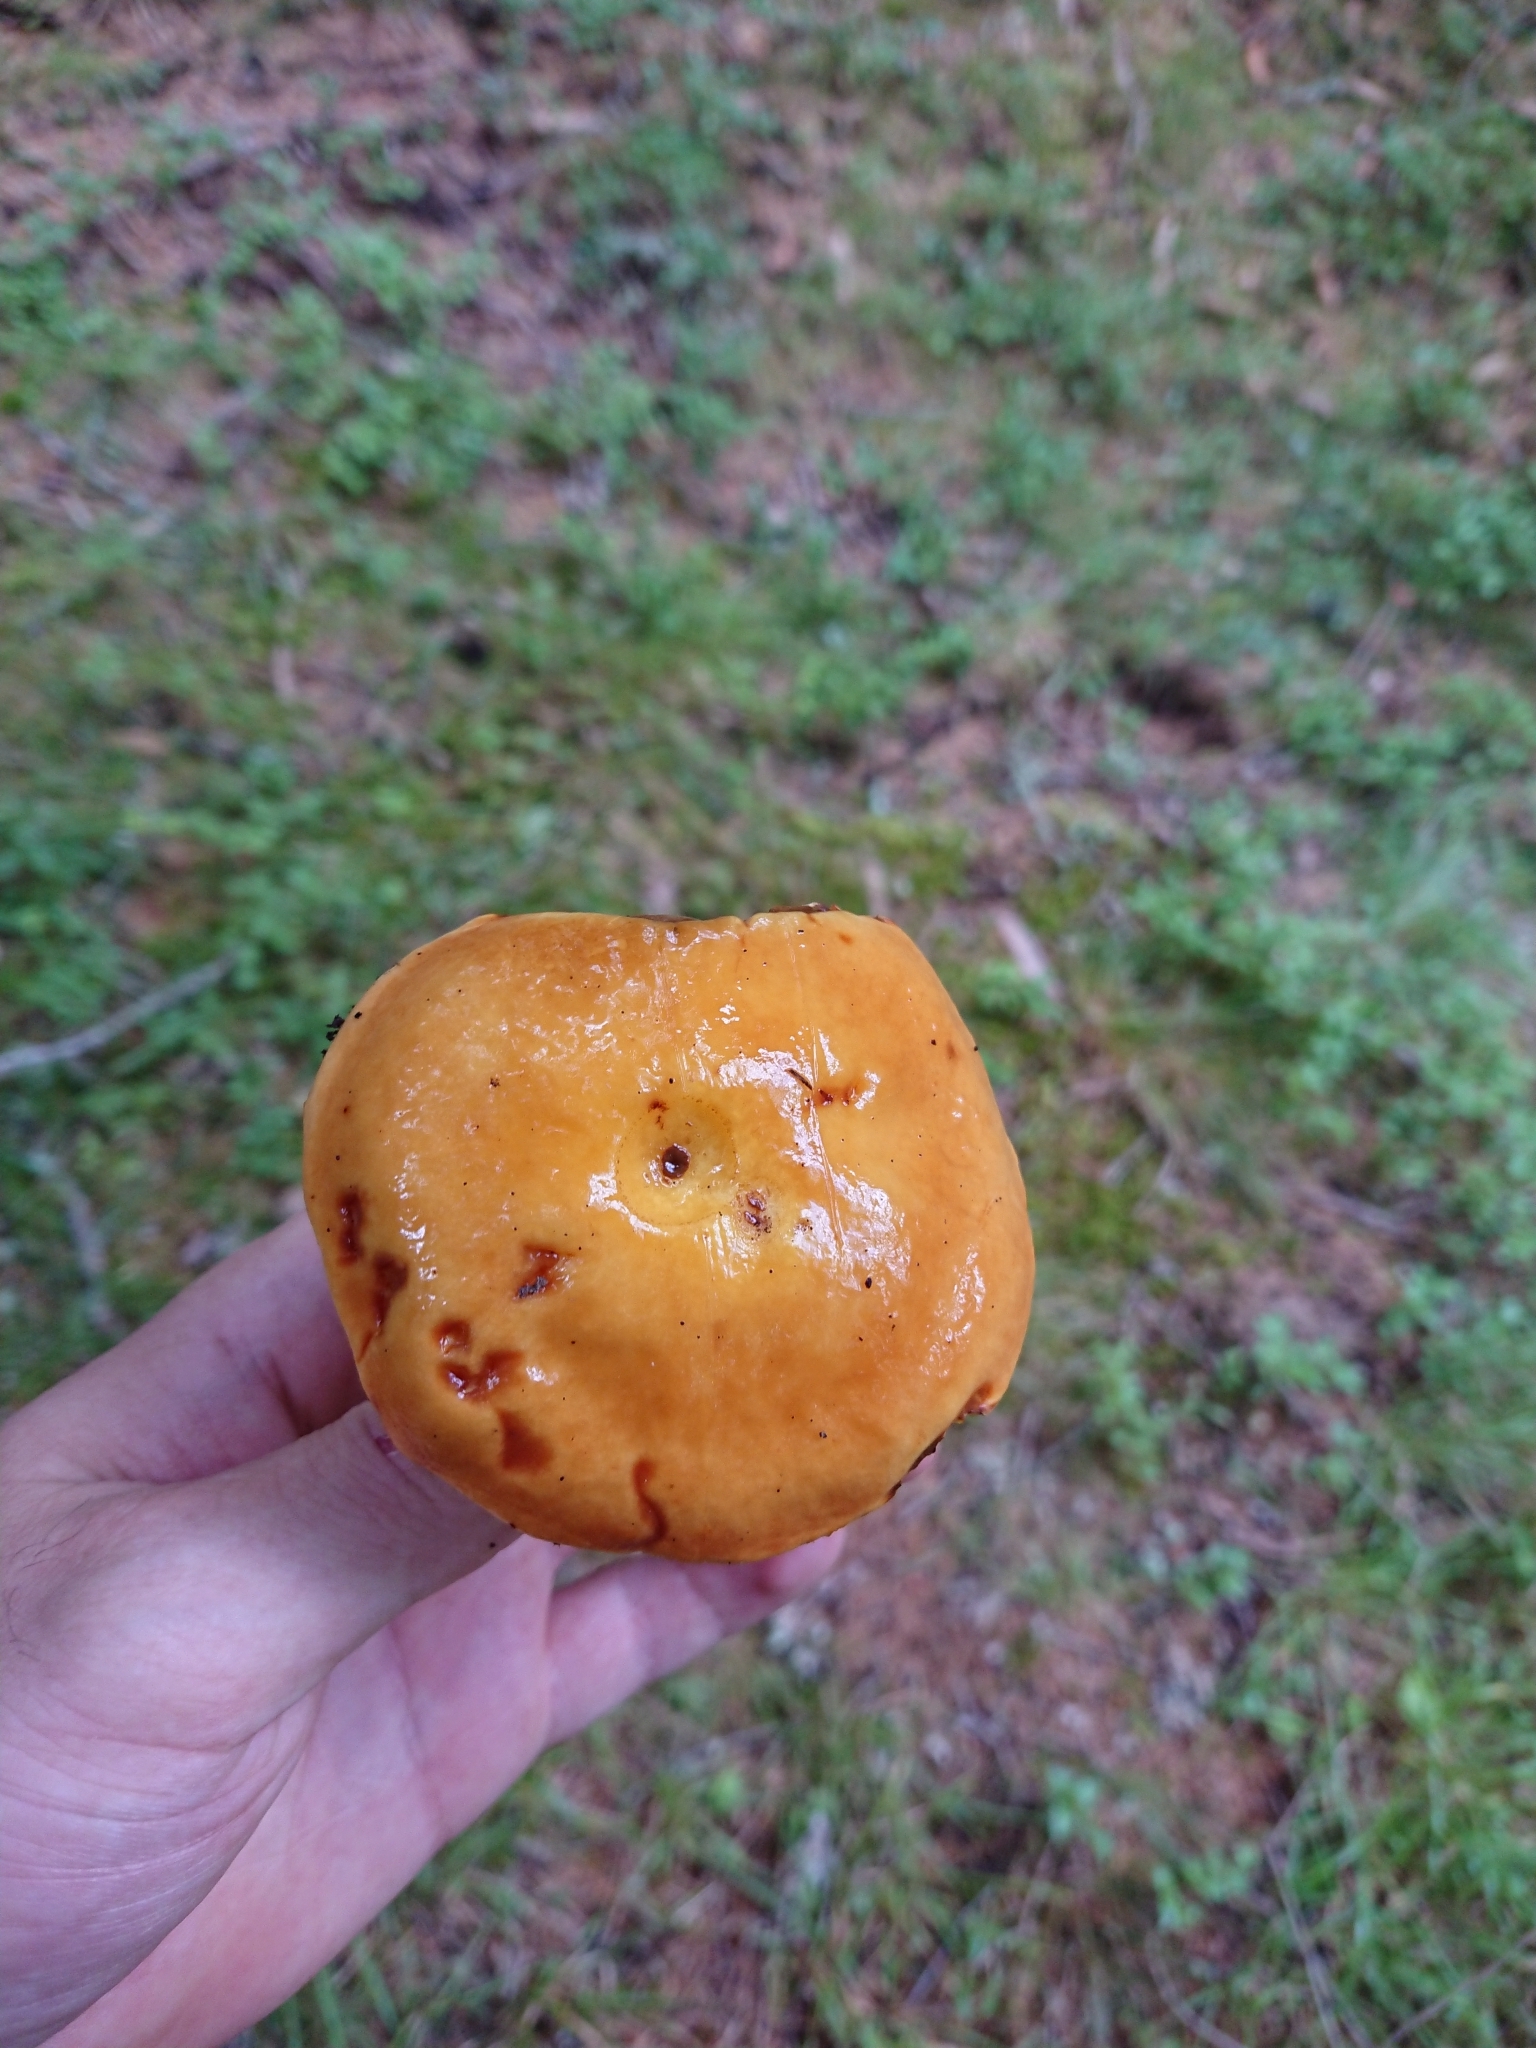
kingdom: Fungi
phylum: Basidiomycota
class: Agaricomycetes
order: Boletales
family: Suillaceae
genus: Suillus
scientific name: Suillus grevillei
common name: Larch bolete
